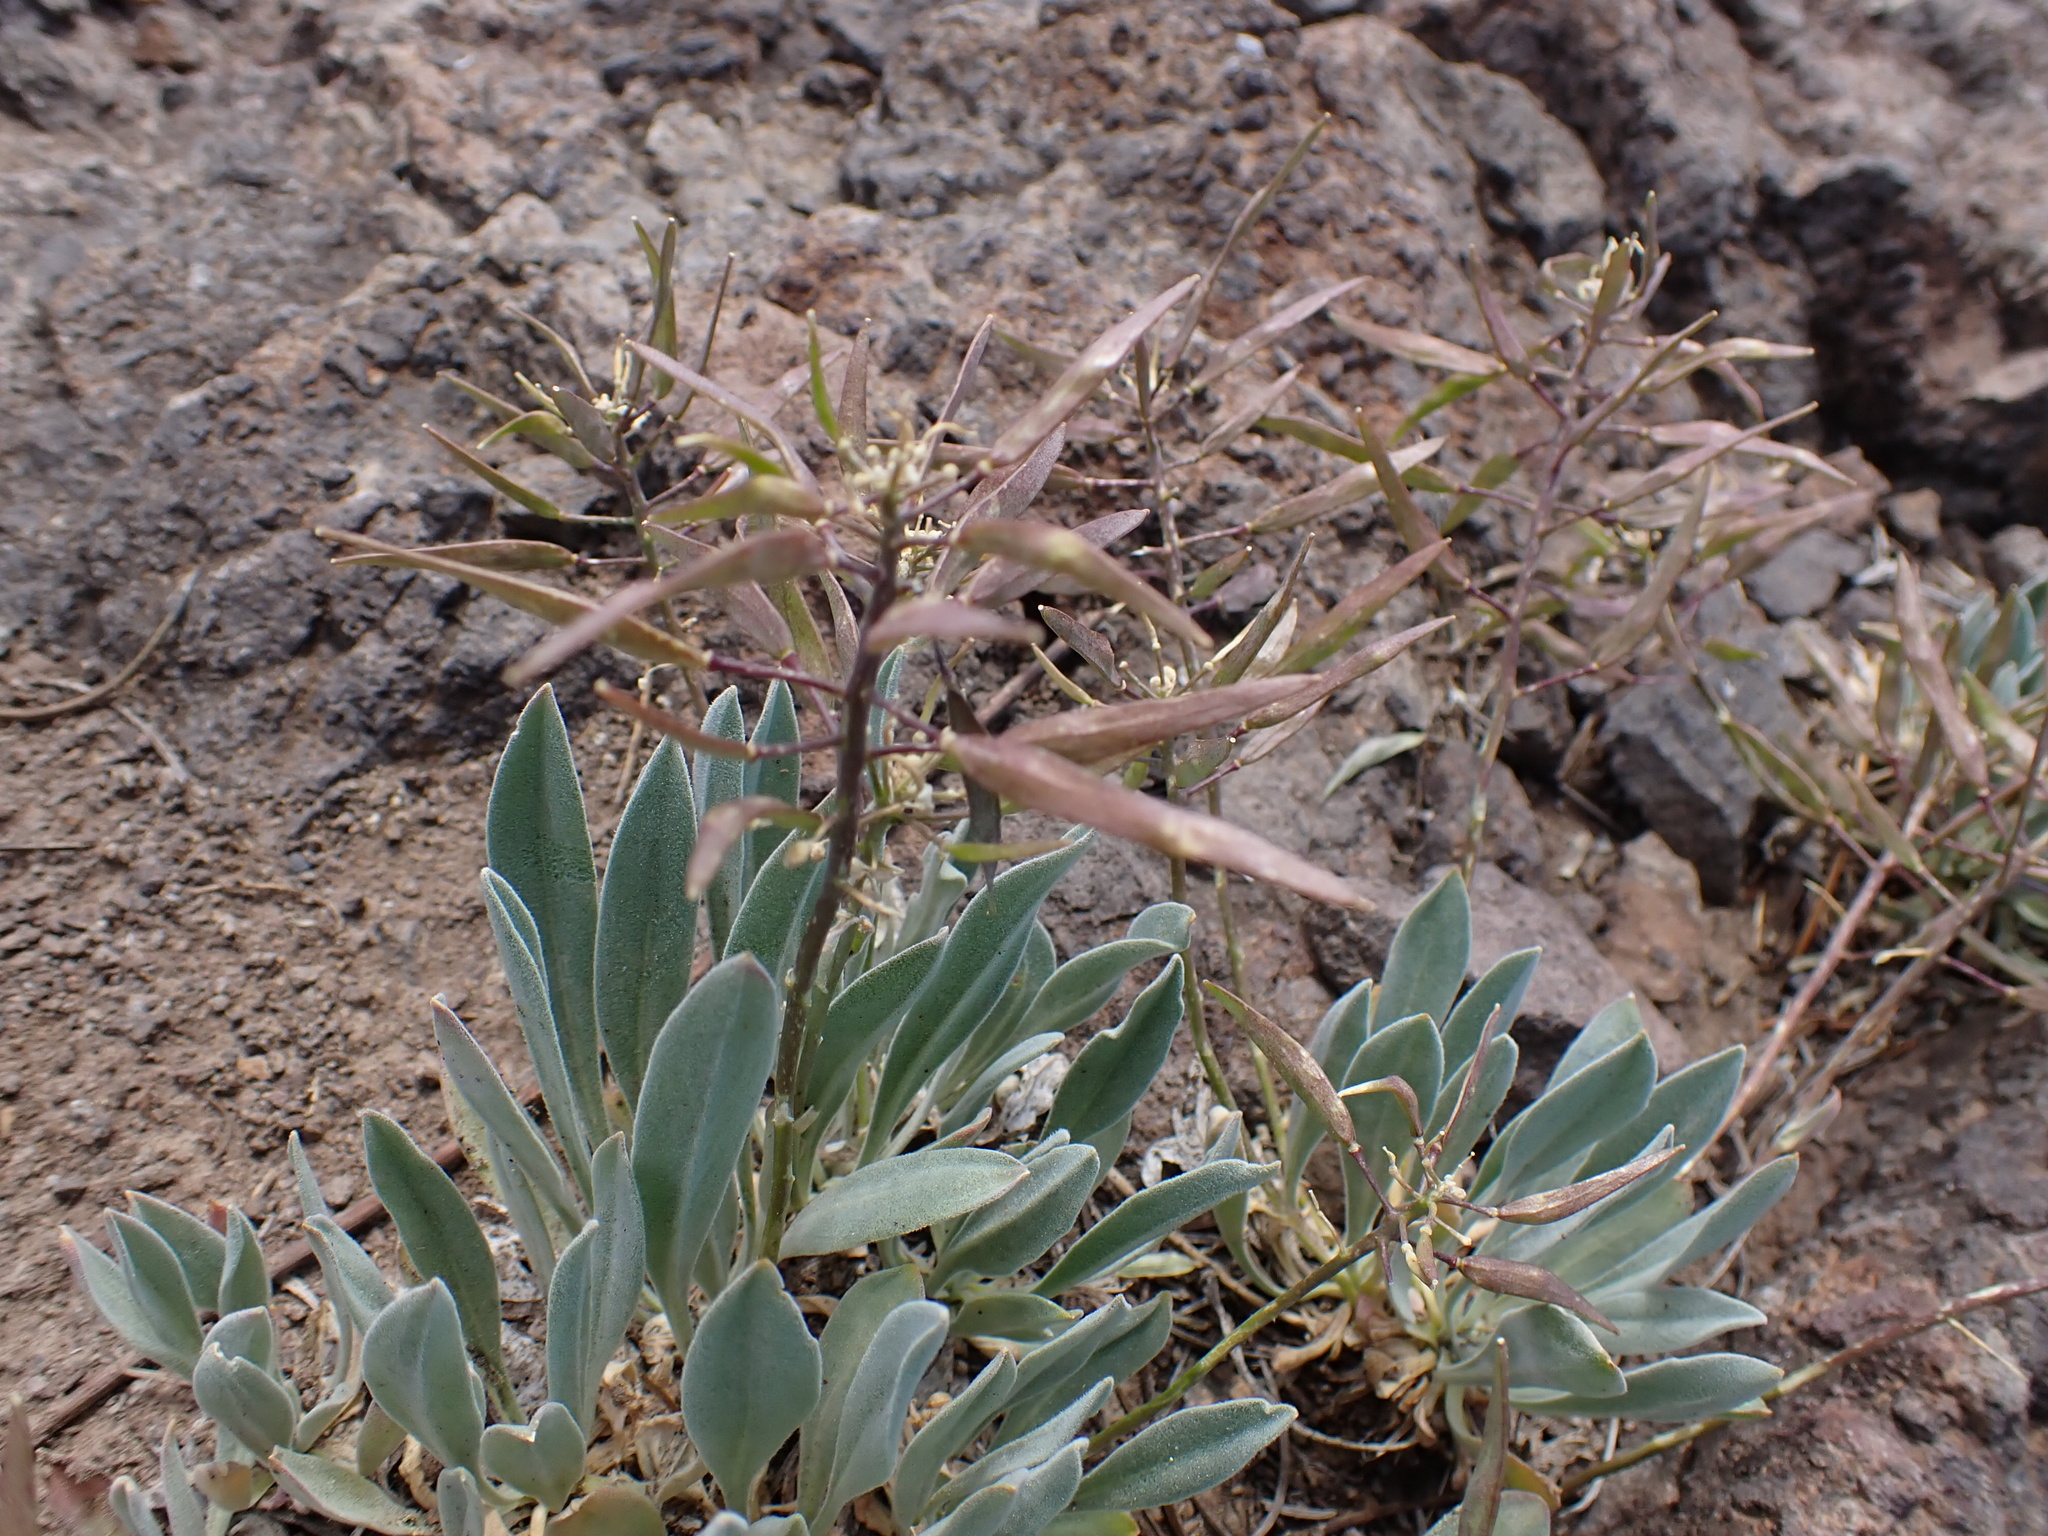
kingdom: Plantae
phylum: Tracheophyta
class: Magnoliopsida
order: Brassicales
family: Brassicaceae
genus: Phoenicaulis
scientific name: Phoenicaulis cheiranthoides
